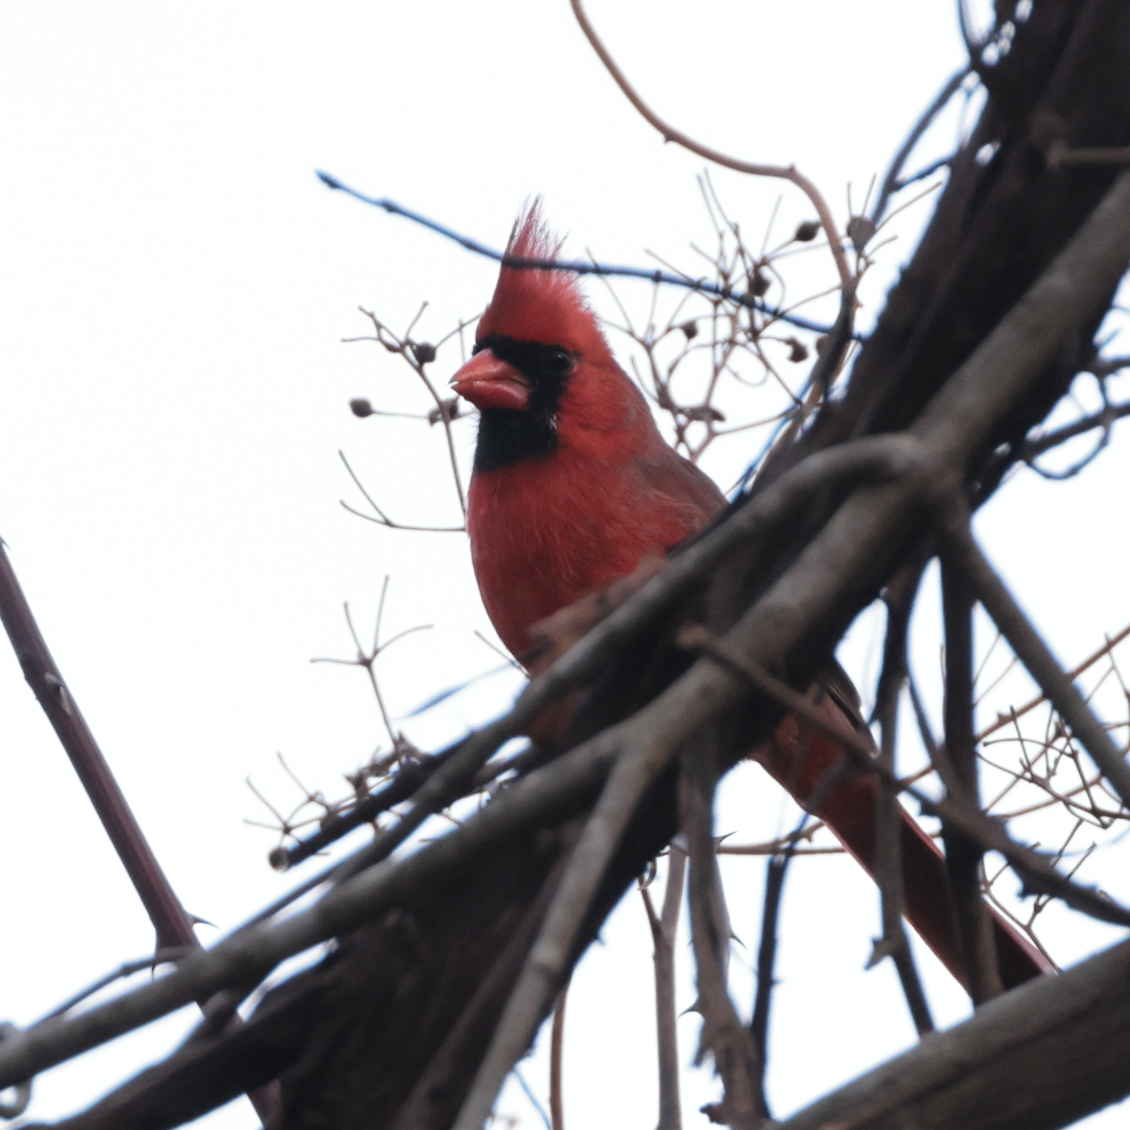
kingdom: Animalia
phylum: Chordata
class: Aves
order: Passeriformes
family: Cardinalidae
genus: Cardinalis
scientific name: Cardinalis cardinalis
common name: Northern cardinal
